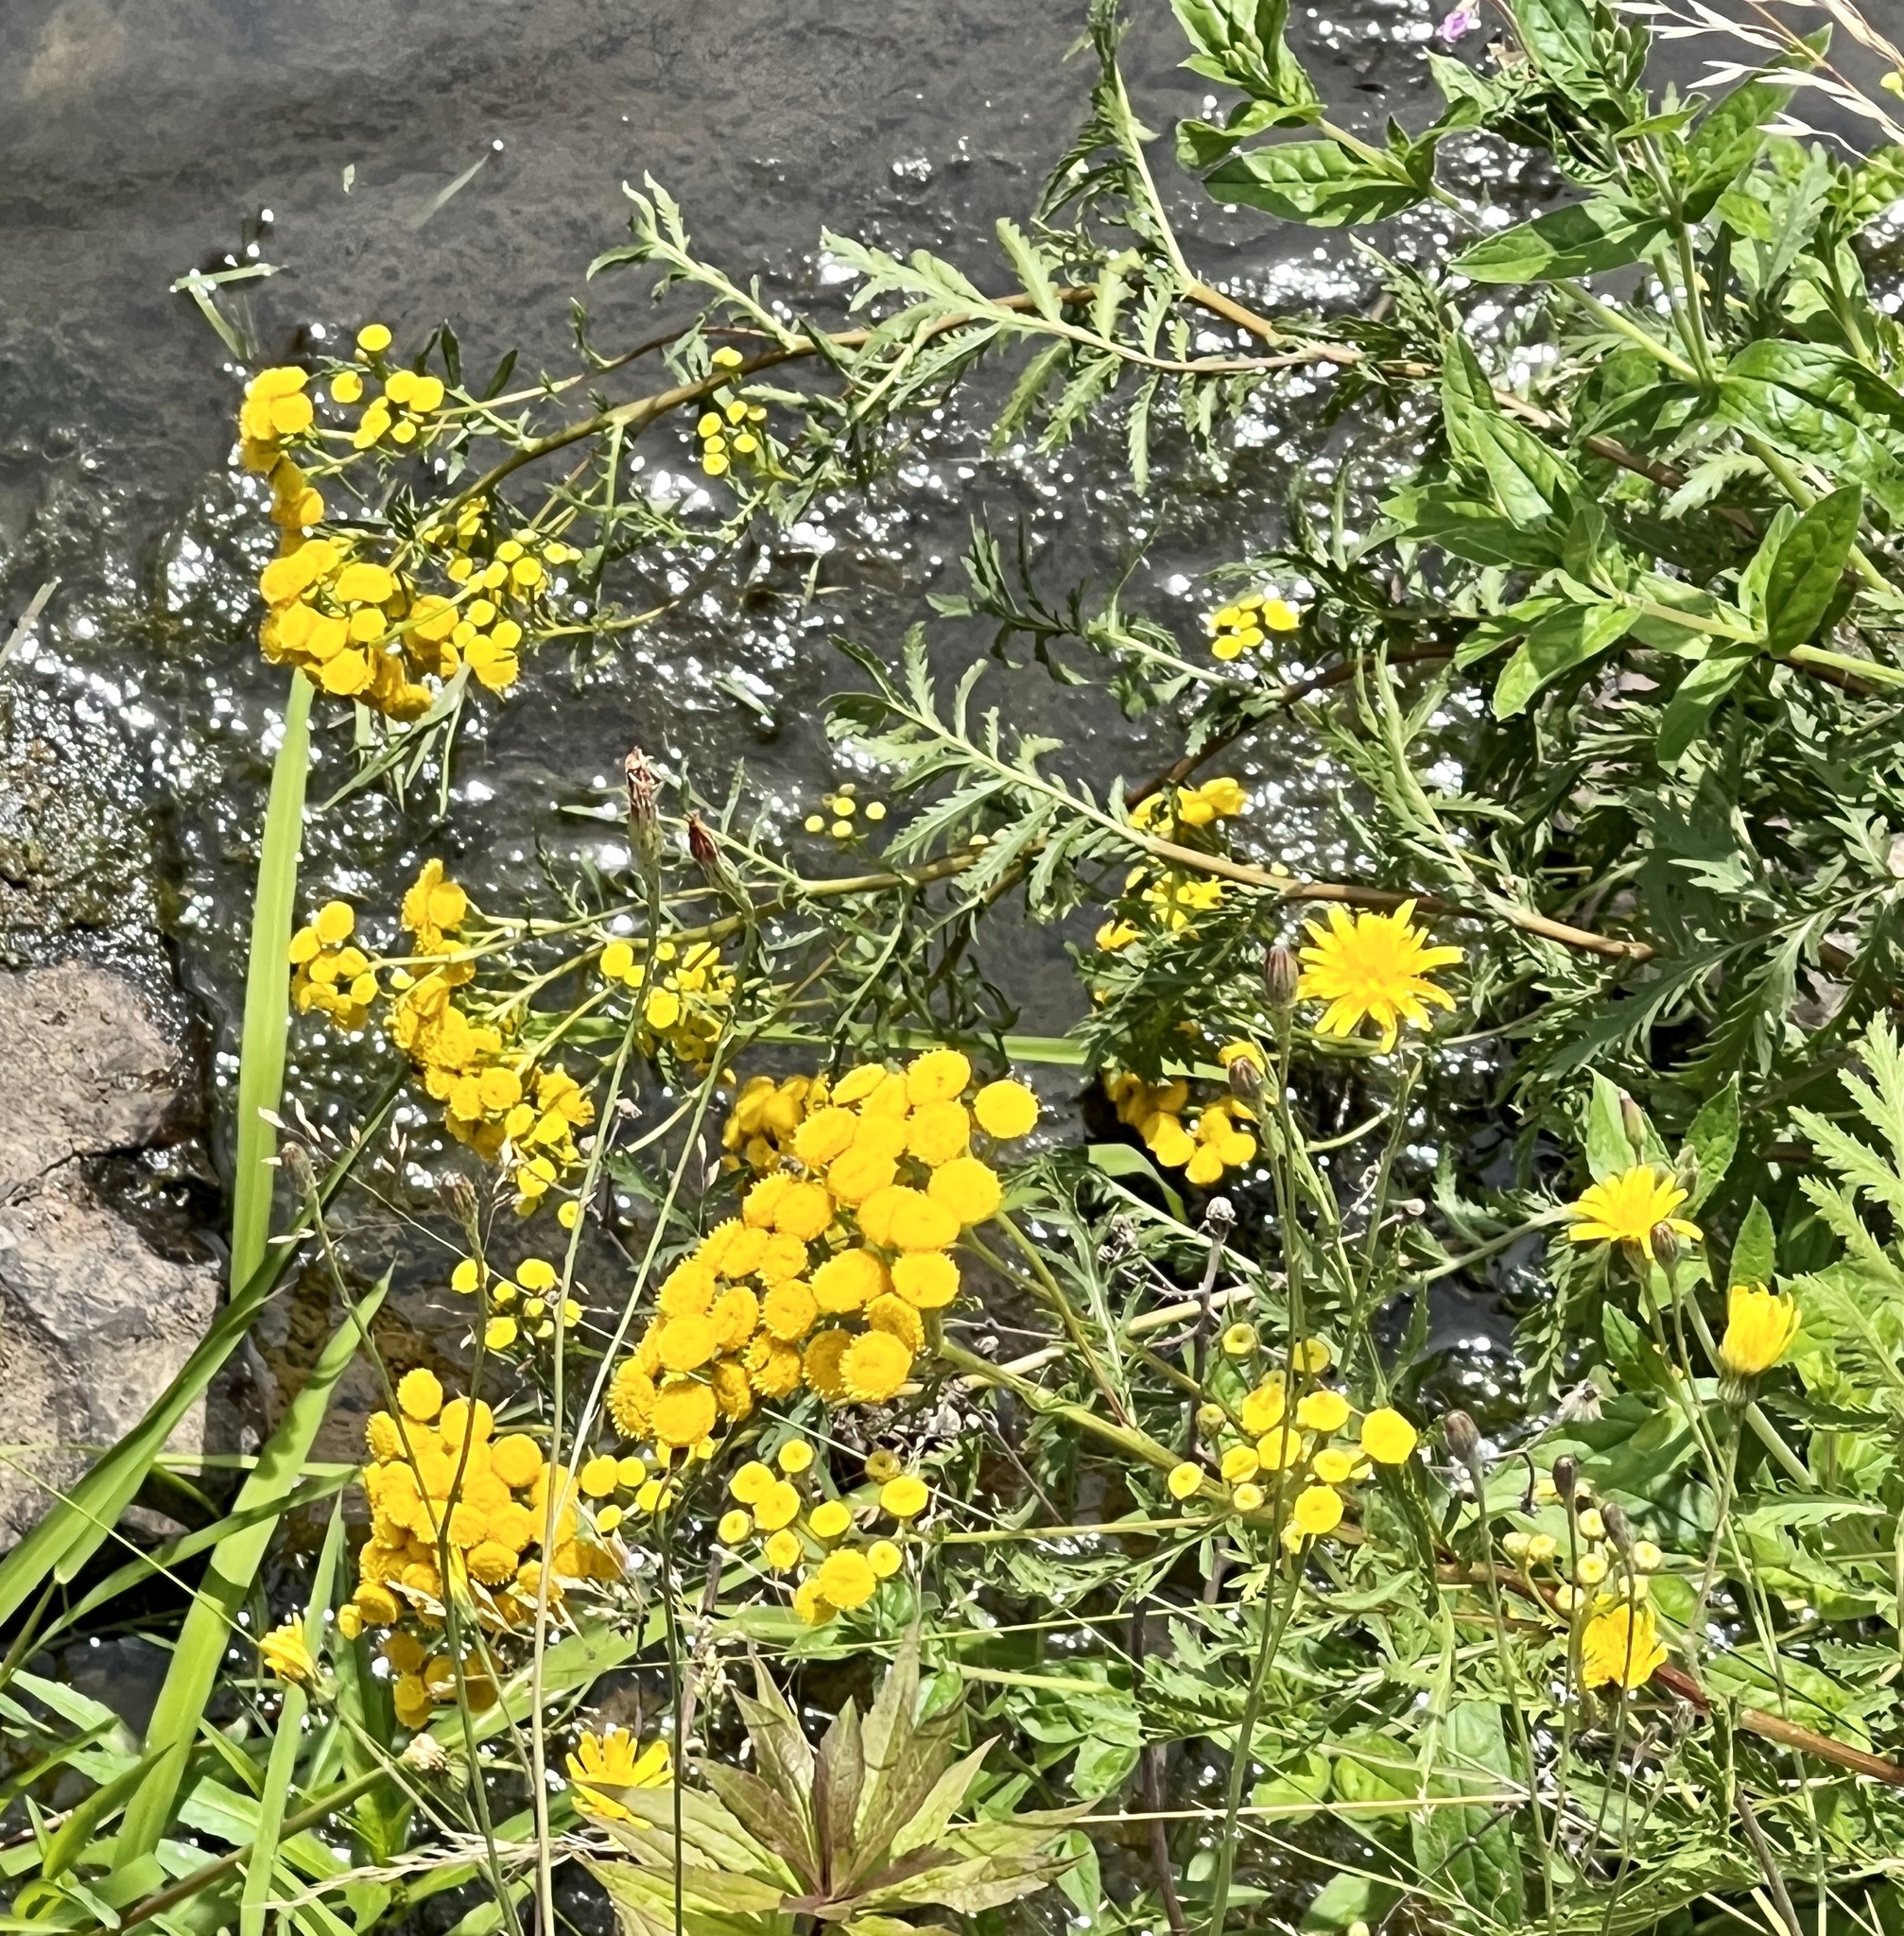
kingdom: Plantae
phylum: Tracheophyta
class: Magnoliopsida
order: Asterales
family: Asteraceae
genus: Tanacetum
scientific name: Tanacetum vulgare
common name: Common tansy
